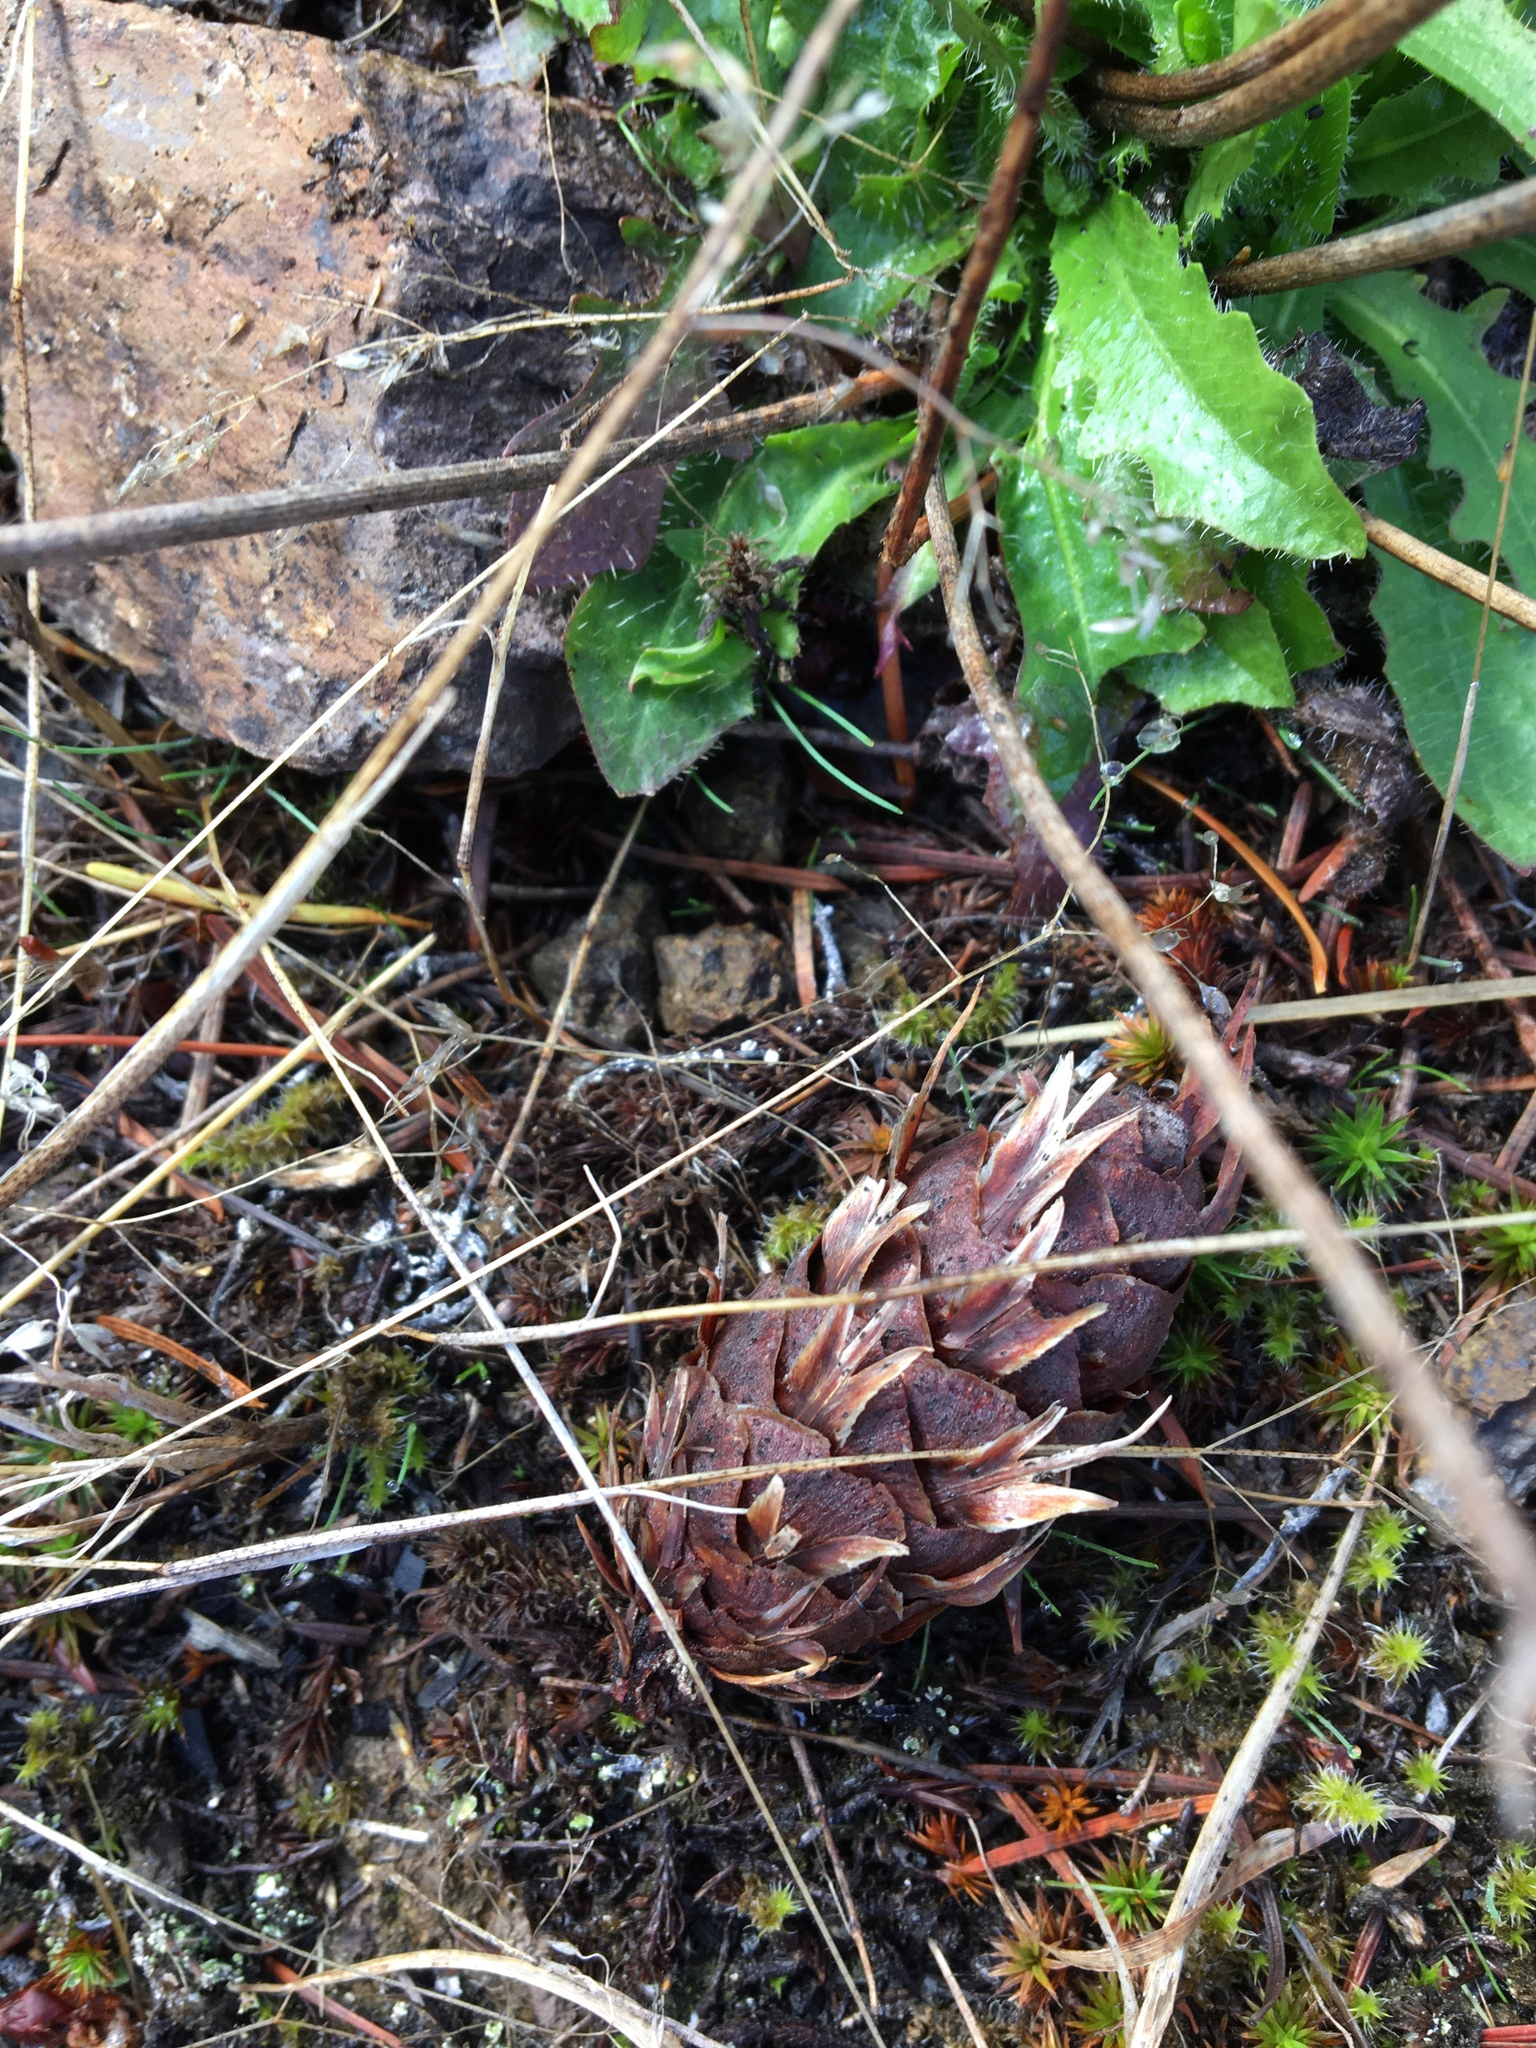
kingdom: Plantae
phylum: Tracheophyta
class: Pinopsida
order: Pinales
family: Pinaceae
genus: Pseudotsuga
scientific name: Pseudotsuga menziesii
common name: Douglas fir
